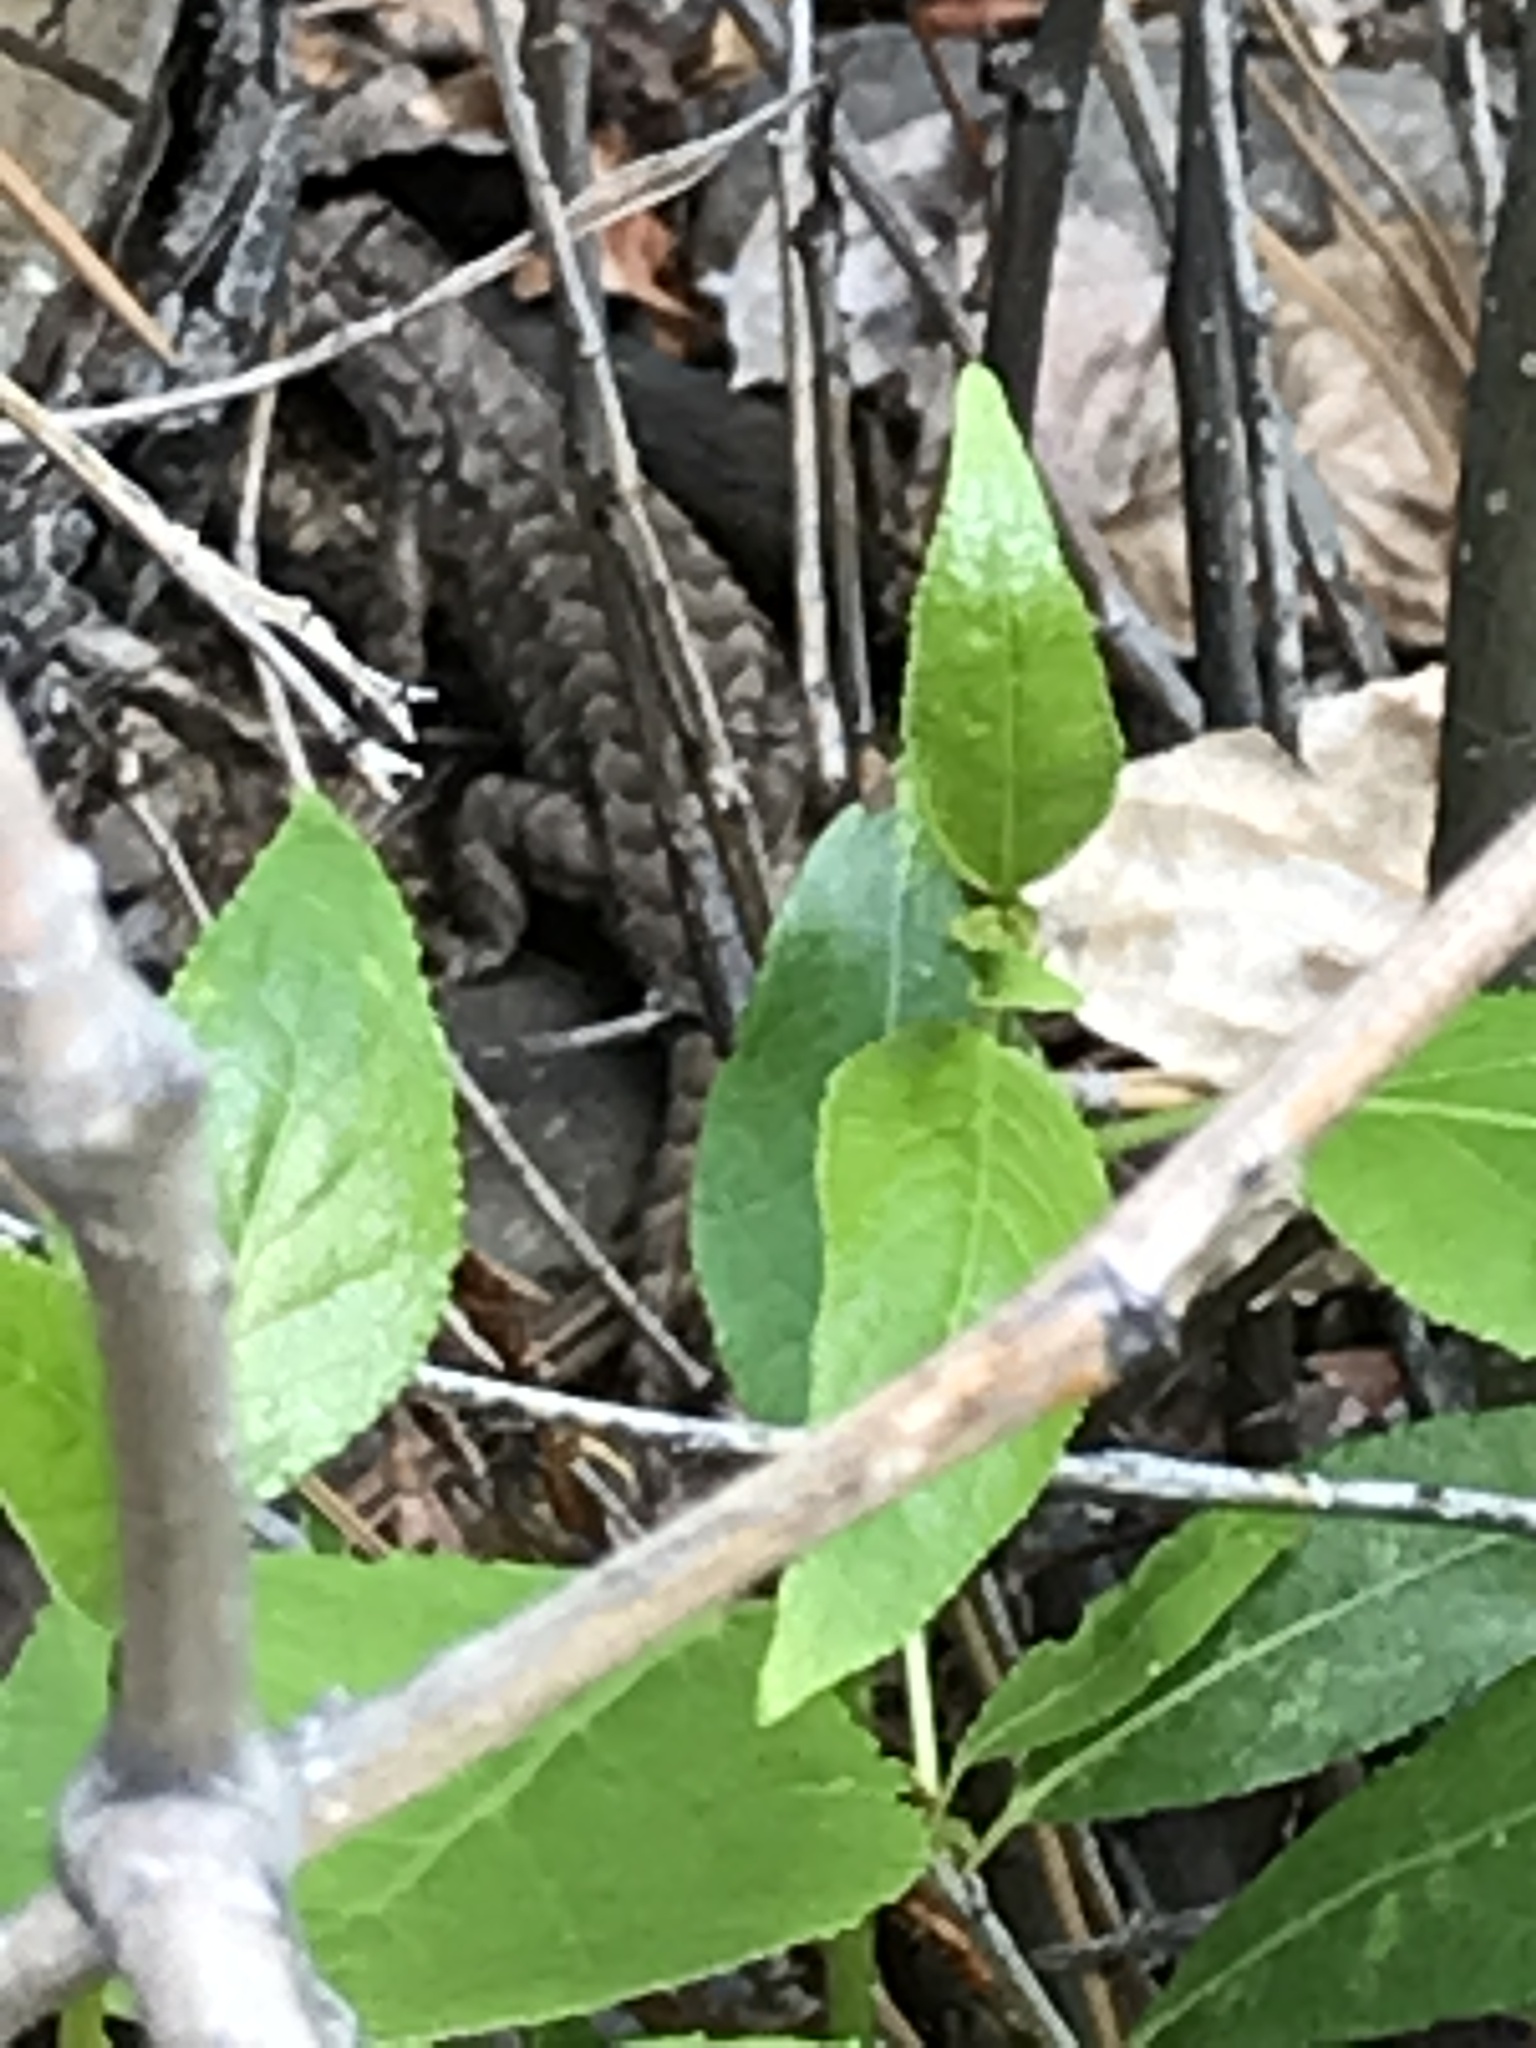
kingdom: Animalia
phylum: Chordata
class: Squamata
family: Phrynosomatidae
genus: Sceloporus
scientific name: Sceloporus occidentalis
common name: Western fence lizard
